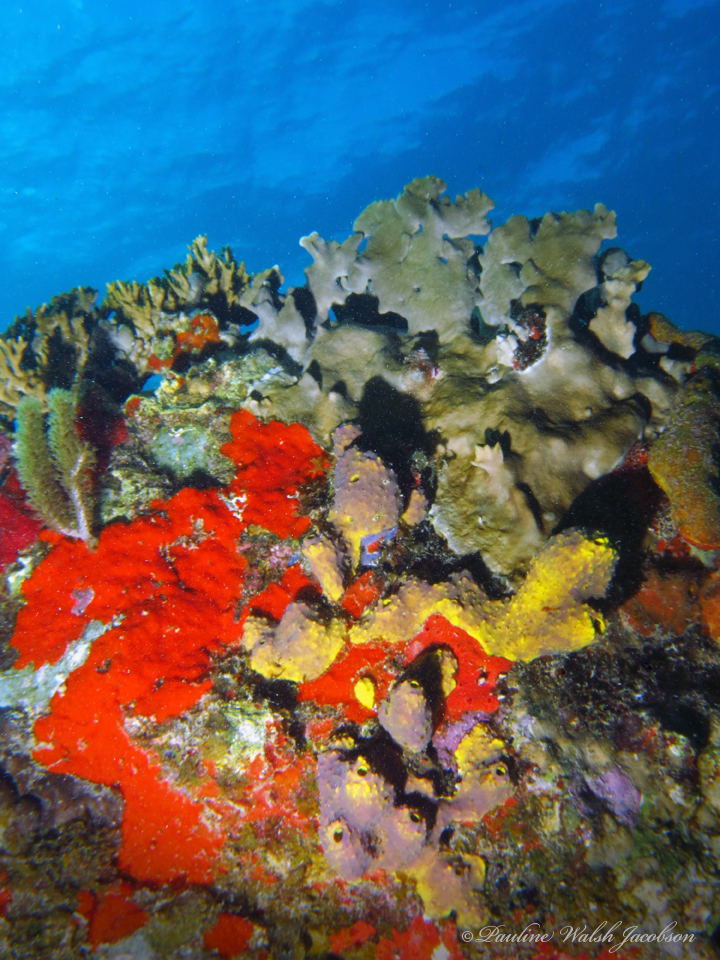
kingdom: Animalia
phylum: Porifera
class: Demospongiae
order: Verongiida
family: Aplysinidae
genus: Aiolochroia
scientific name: Aiolochroia crassa
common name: Branching tube sponge
